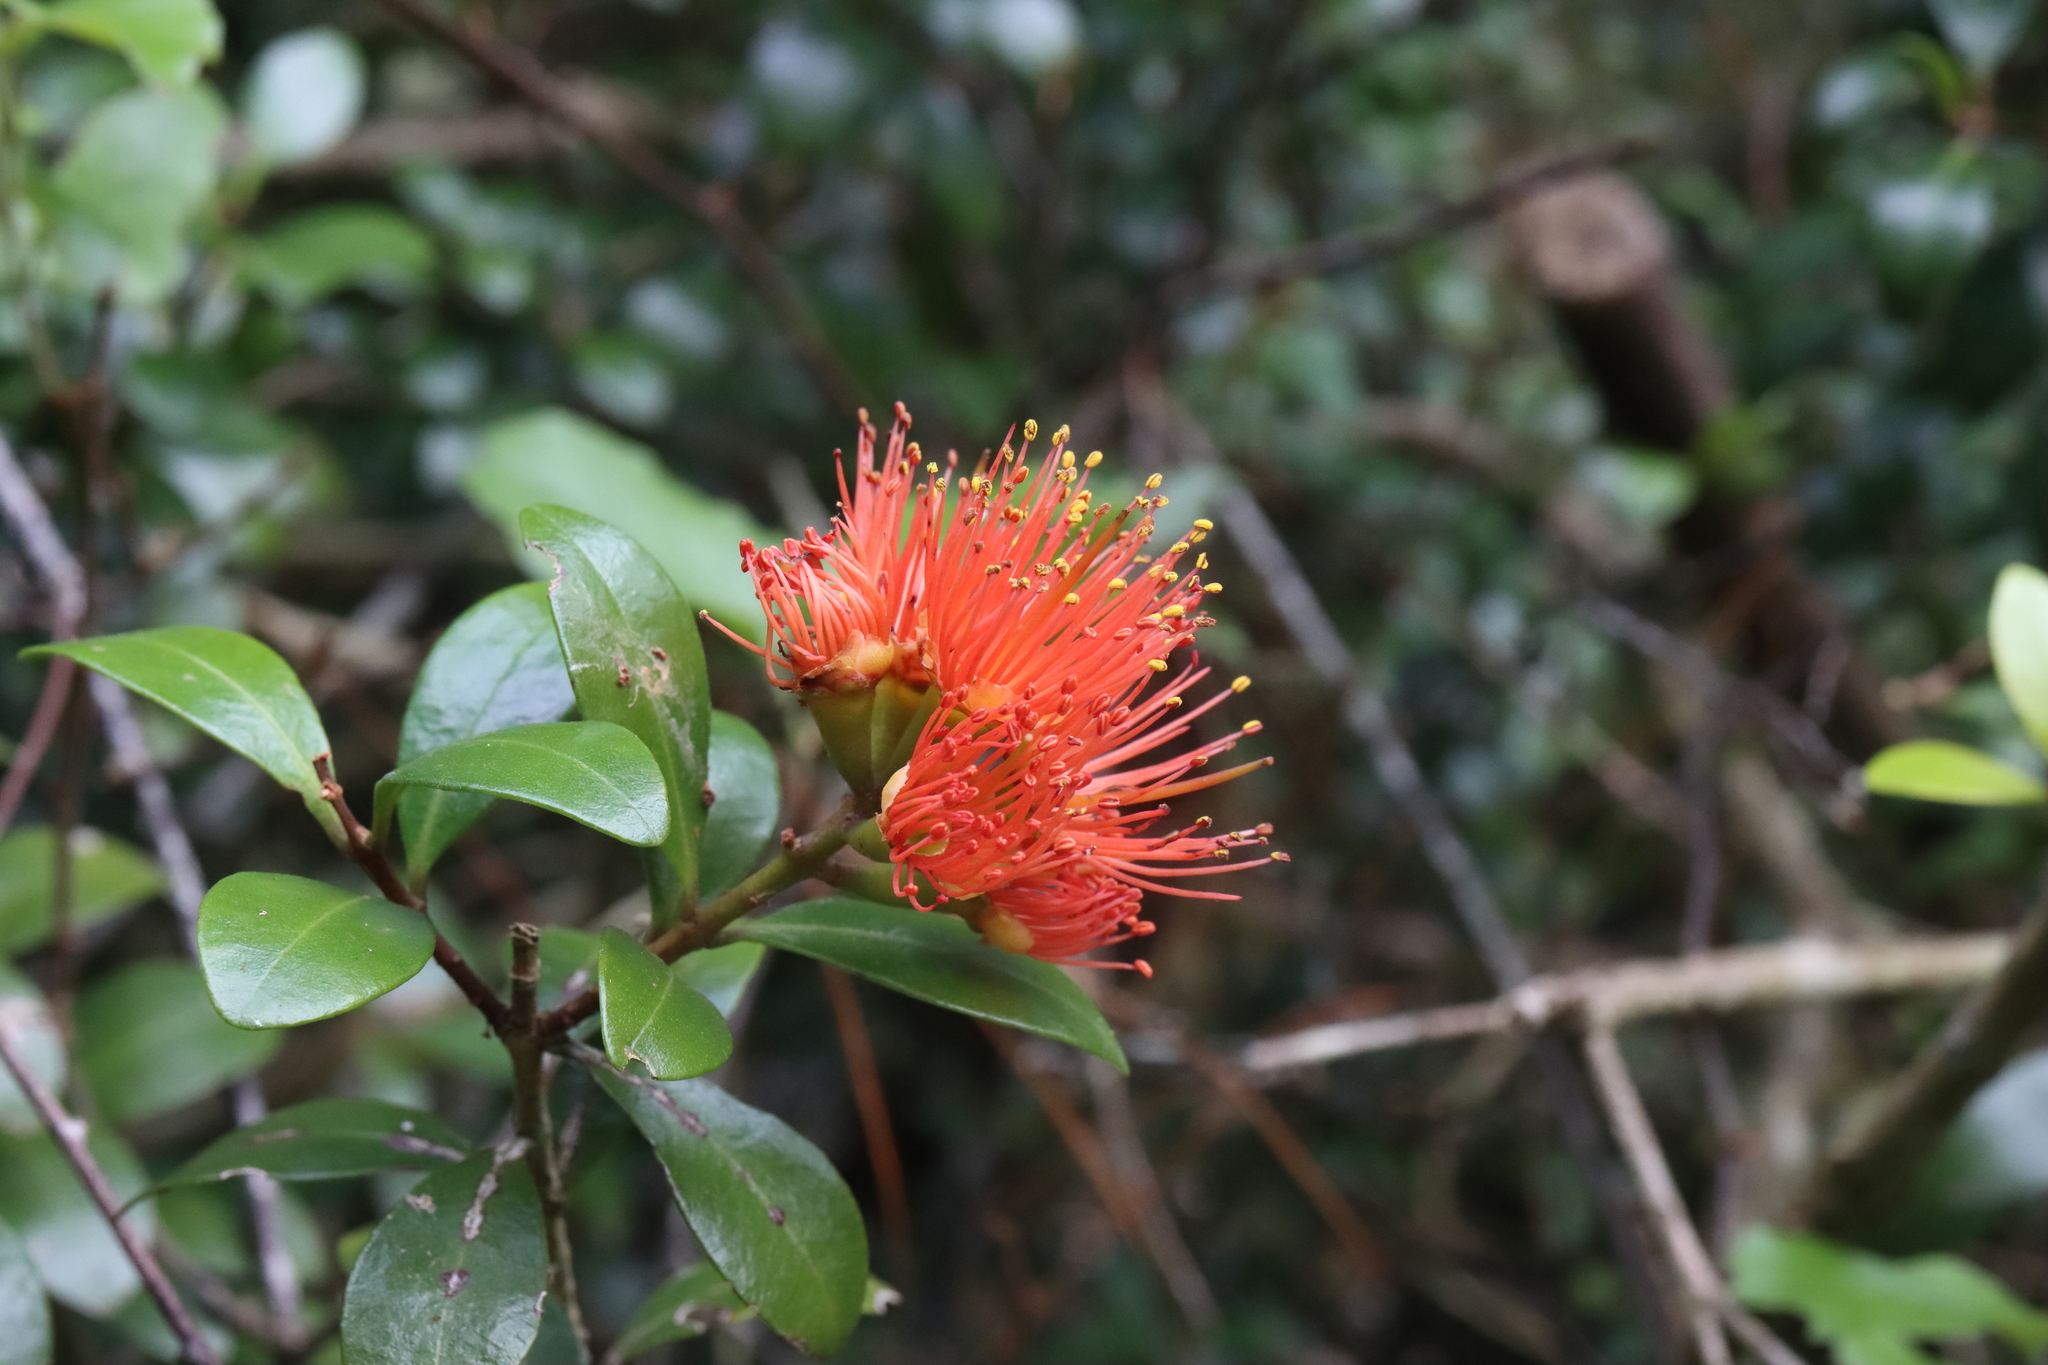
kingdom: Plantae
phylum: Tracheophyta
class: Magnoliopsida
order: Myrtales
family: Myrtaceae
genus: Metrosideros
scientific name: Metrosideros fulgens
